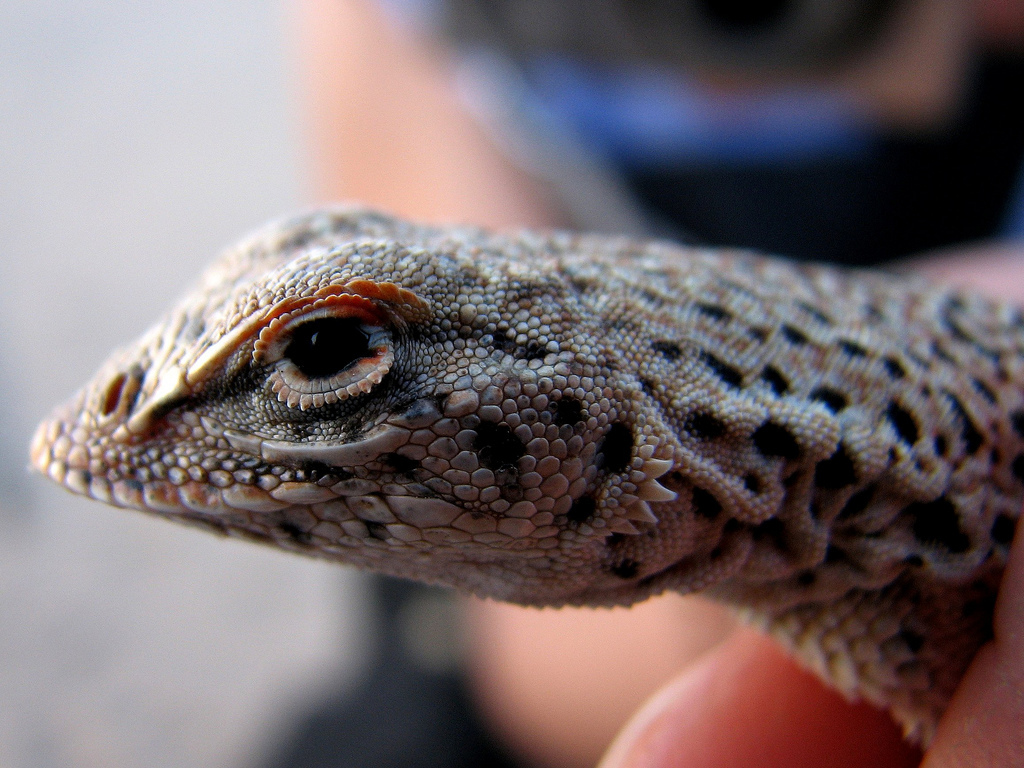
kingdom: Animalia
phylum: Chordata
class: Squamata
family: Phrynosomatidae
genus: Uma
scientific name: Uma scoparia
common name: Mojave fringe-toed lizard
